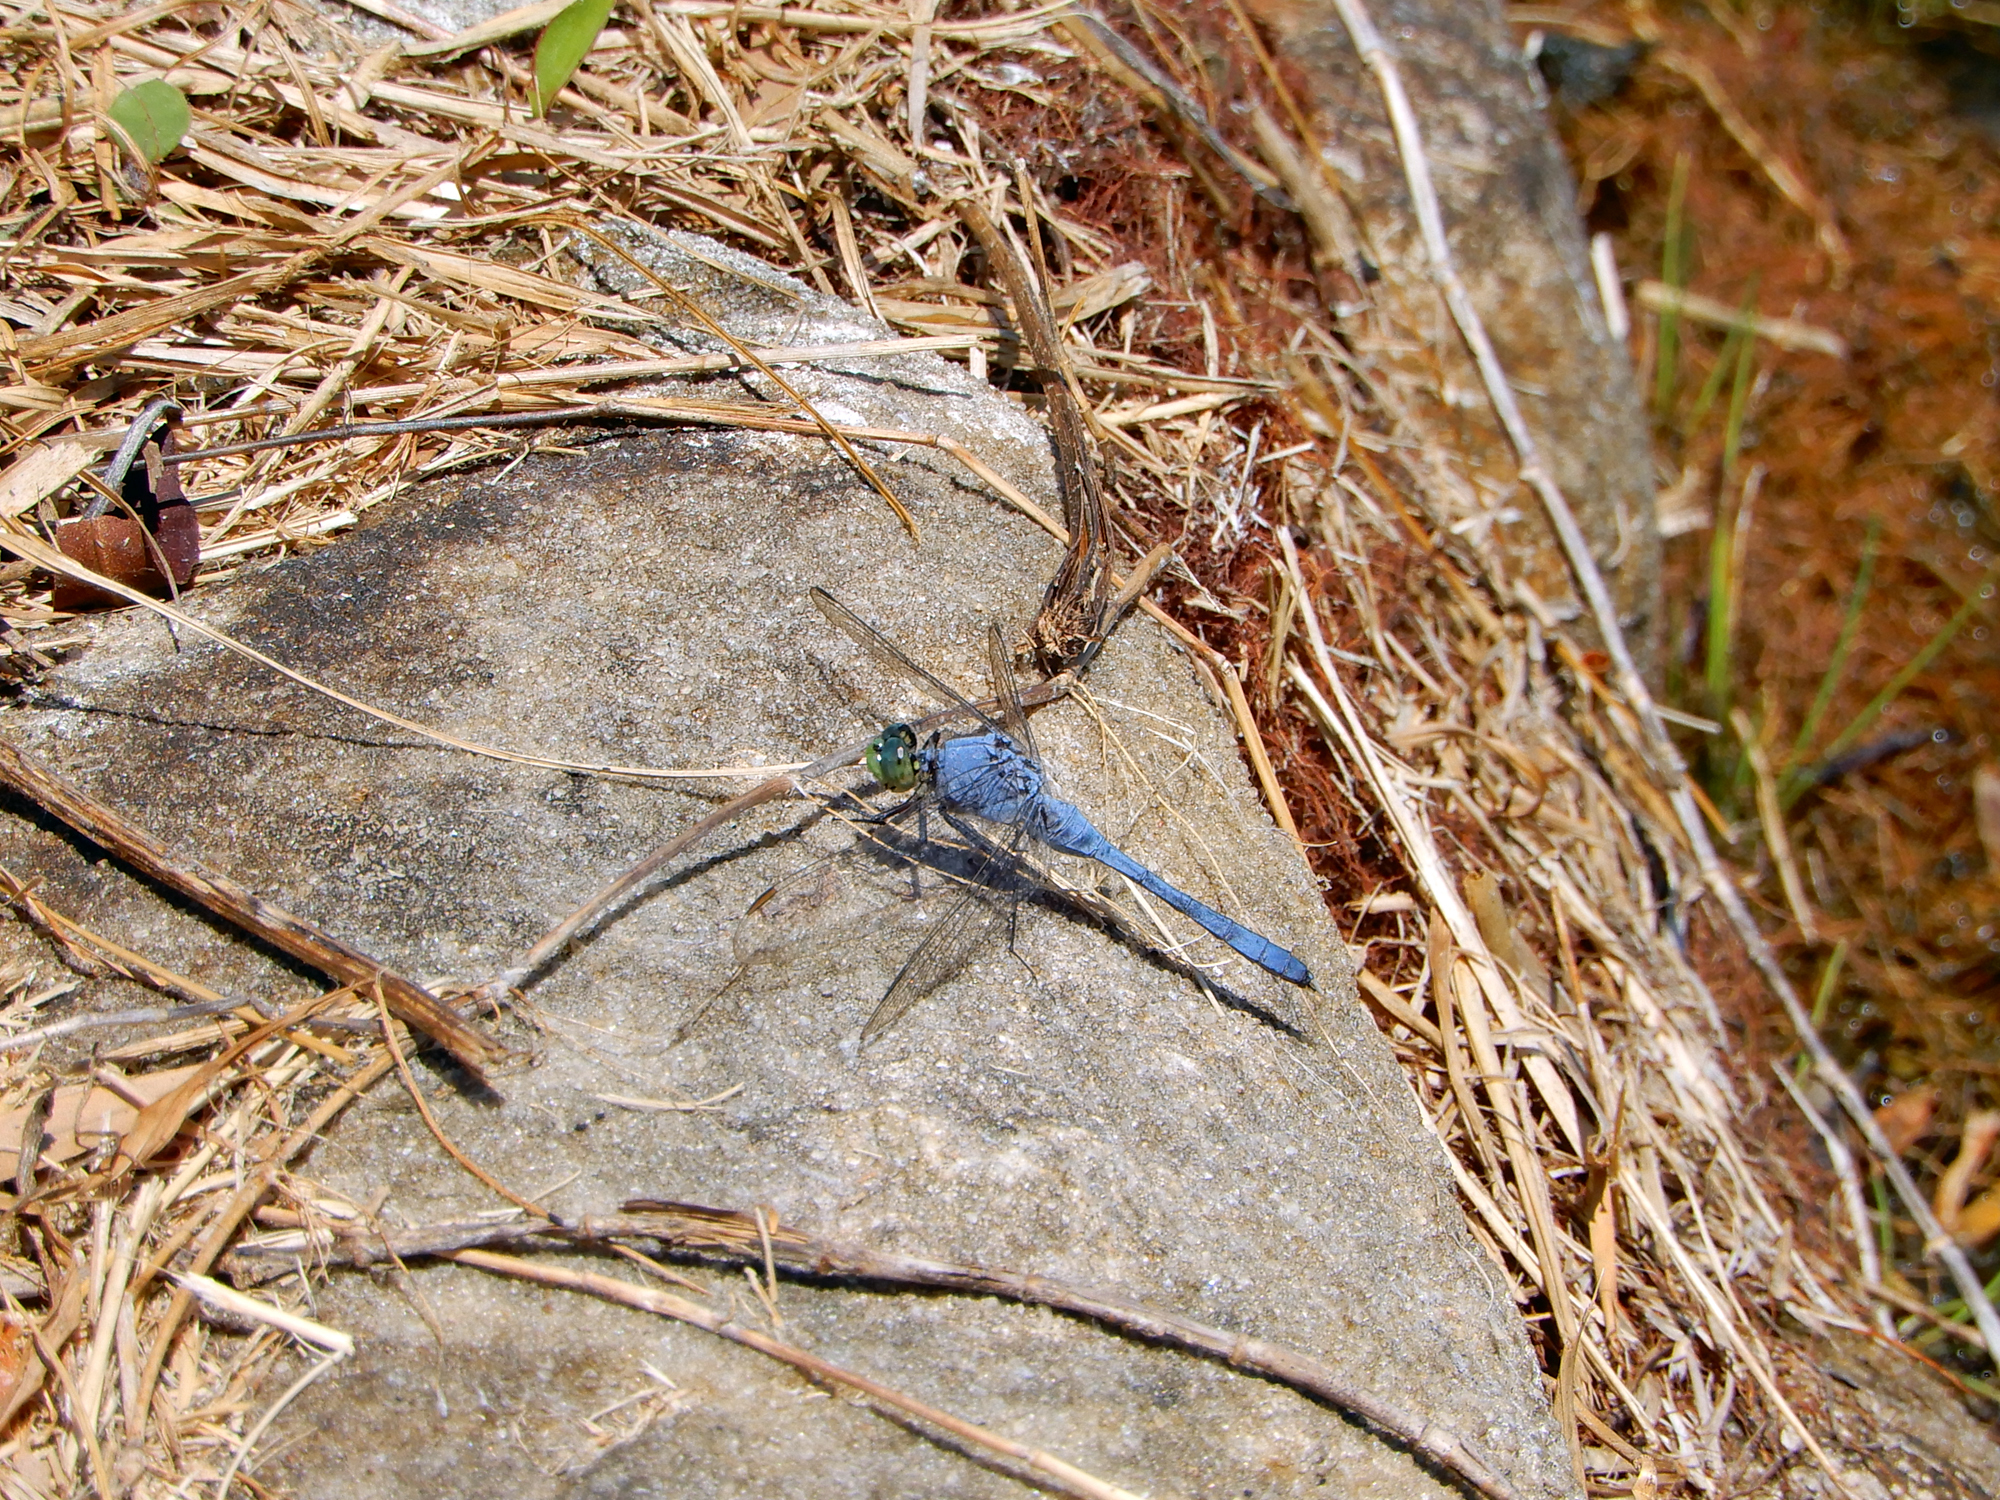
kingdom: Animalia
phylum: Arthropoda
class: Insecta
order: Odonata
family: Libellulidae
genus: Erythemis
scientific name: Erythemis simplicicollis
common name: Eastern pondhawk
